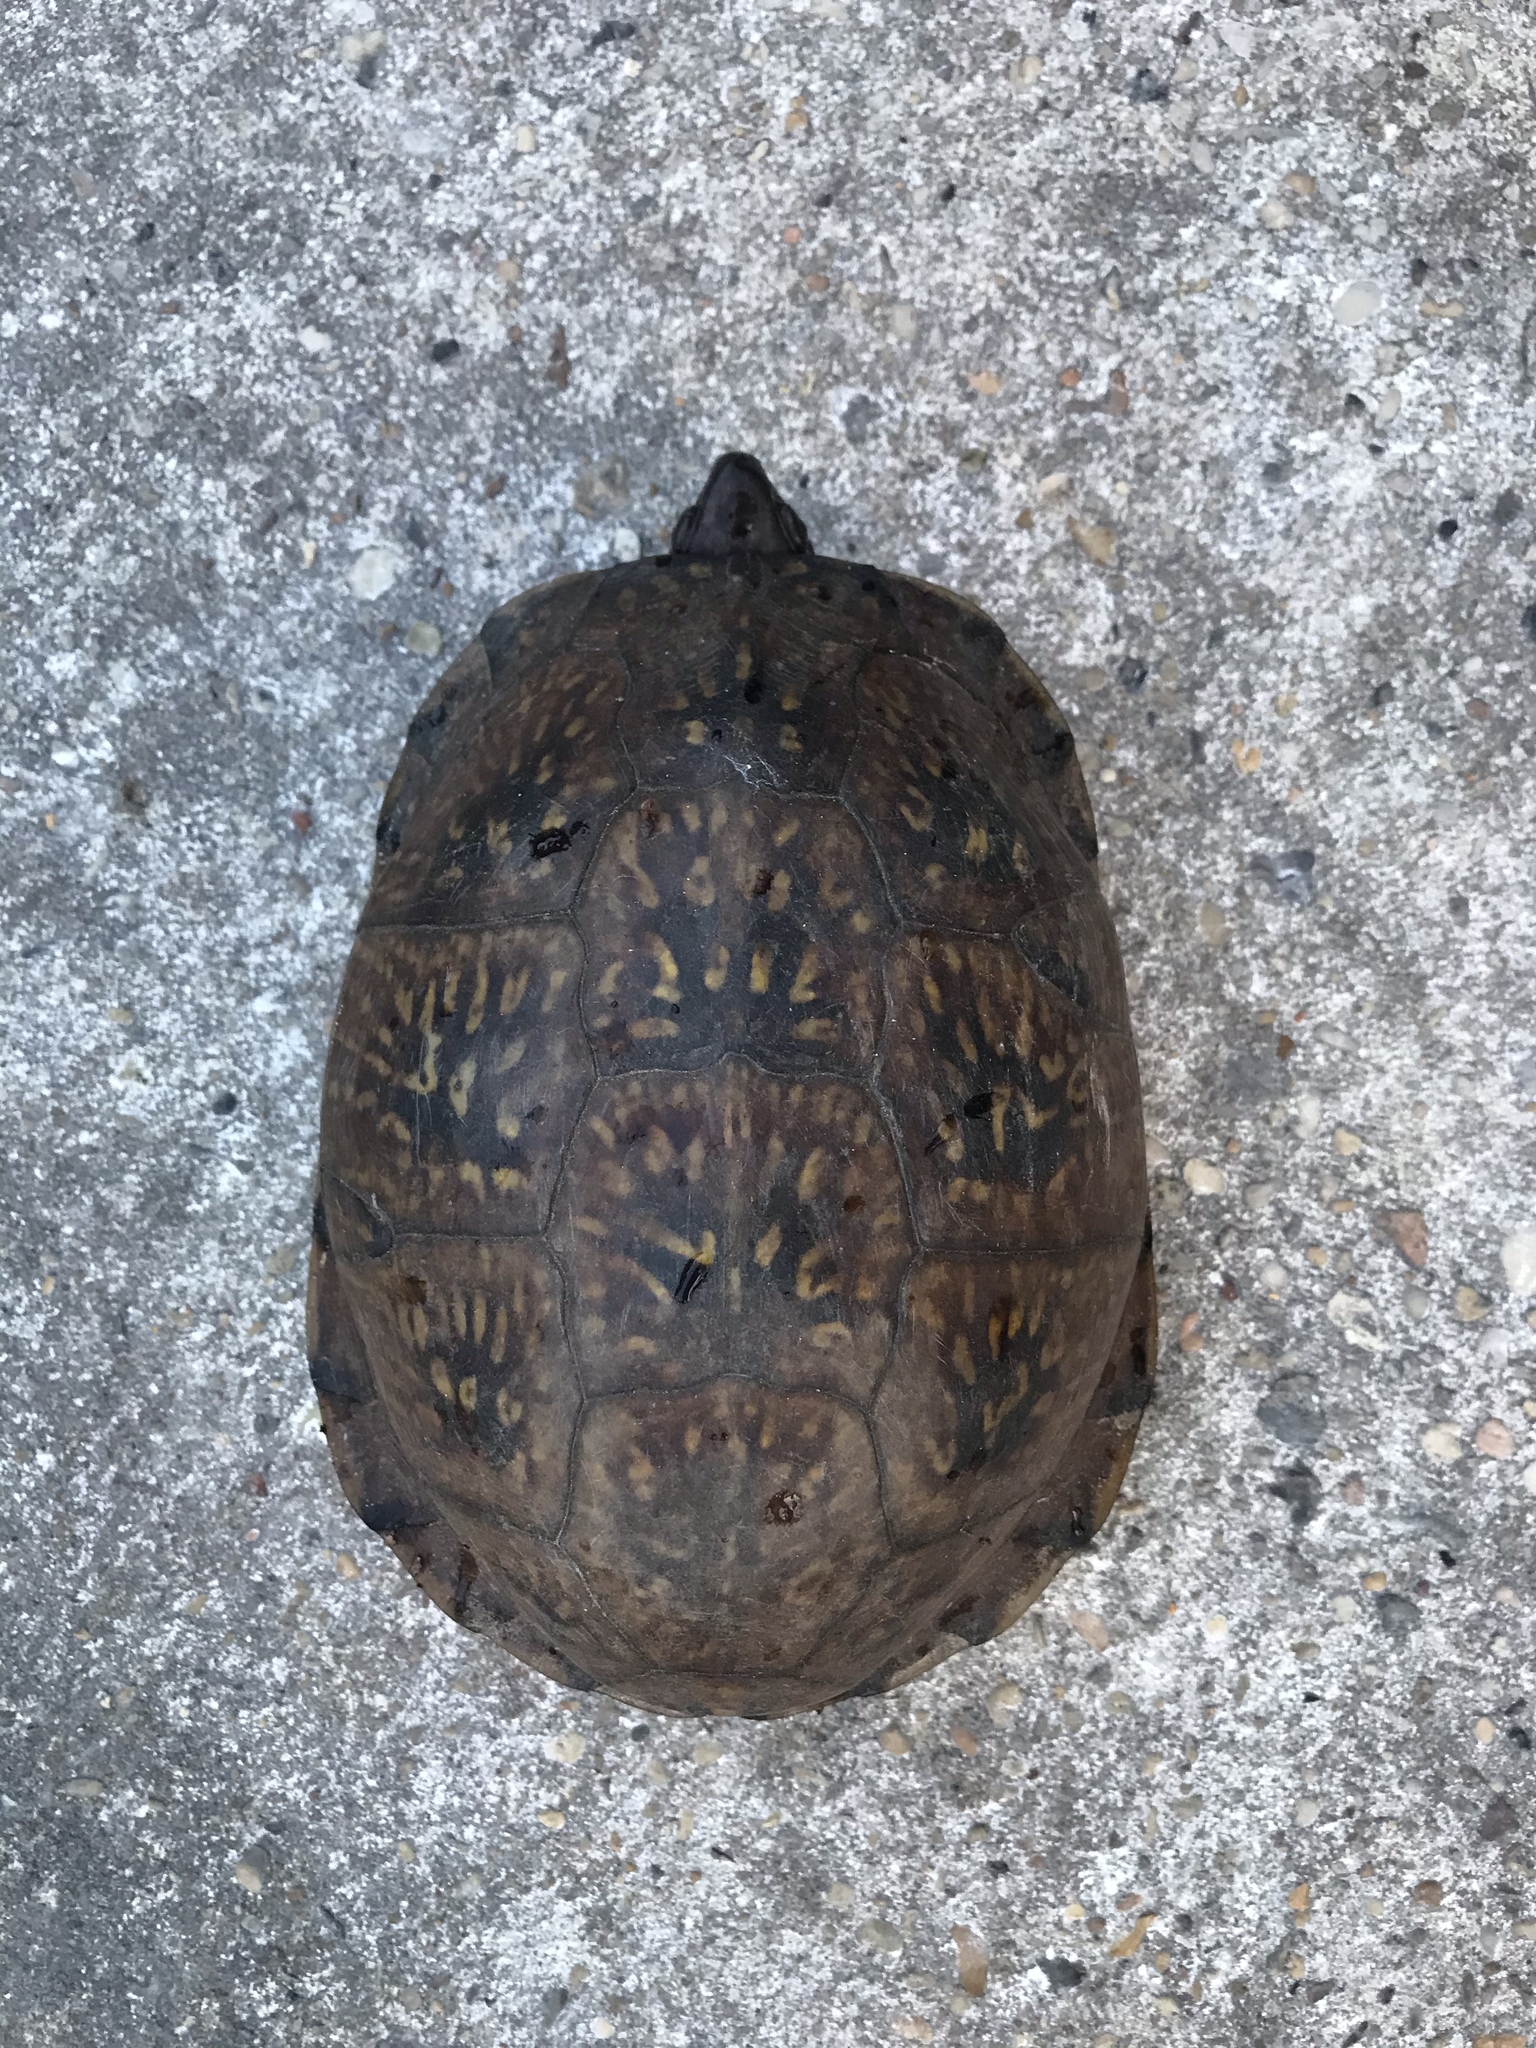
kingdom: Animalia
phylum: Chordata
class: Testudines
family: Emydidae
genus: Terrapene
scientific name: Terrapene carolina
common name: Common box turtle
